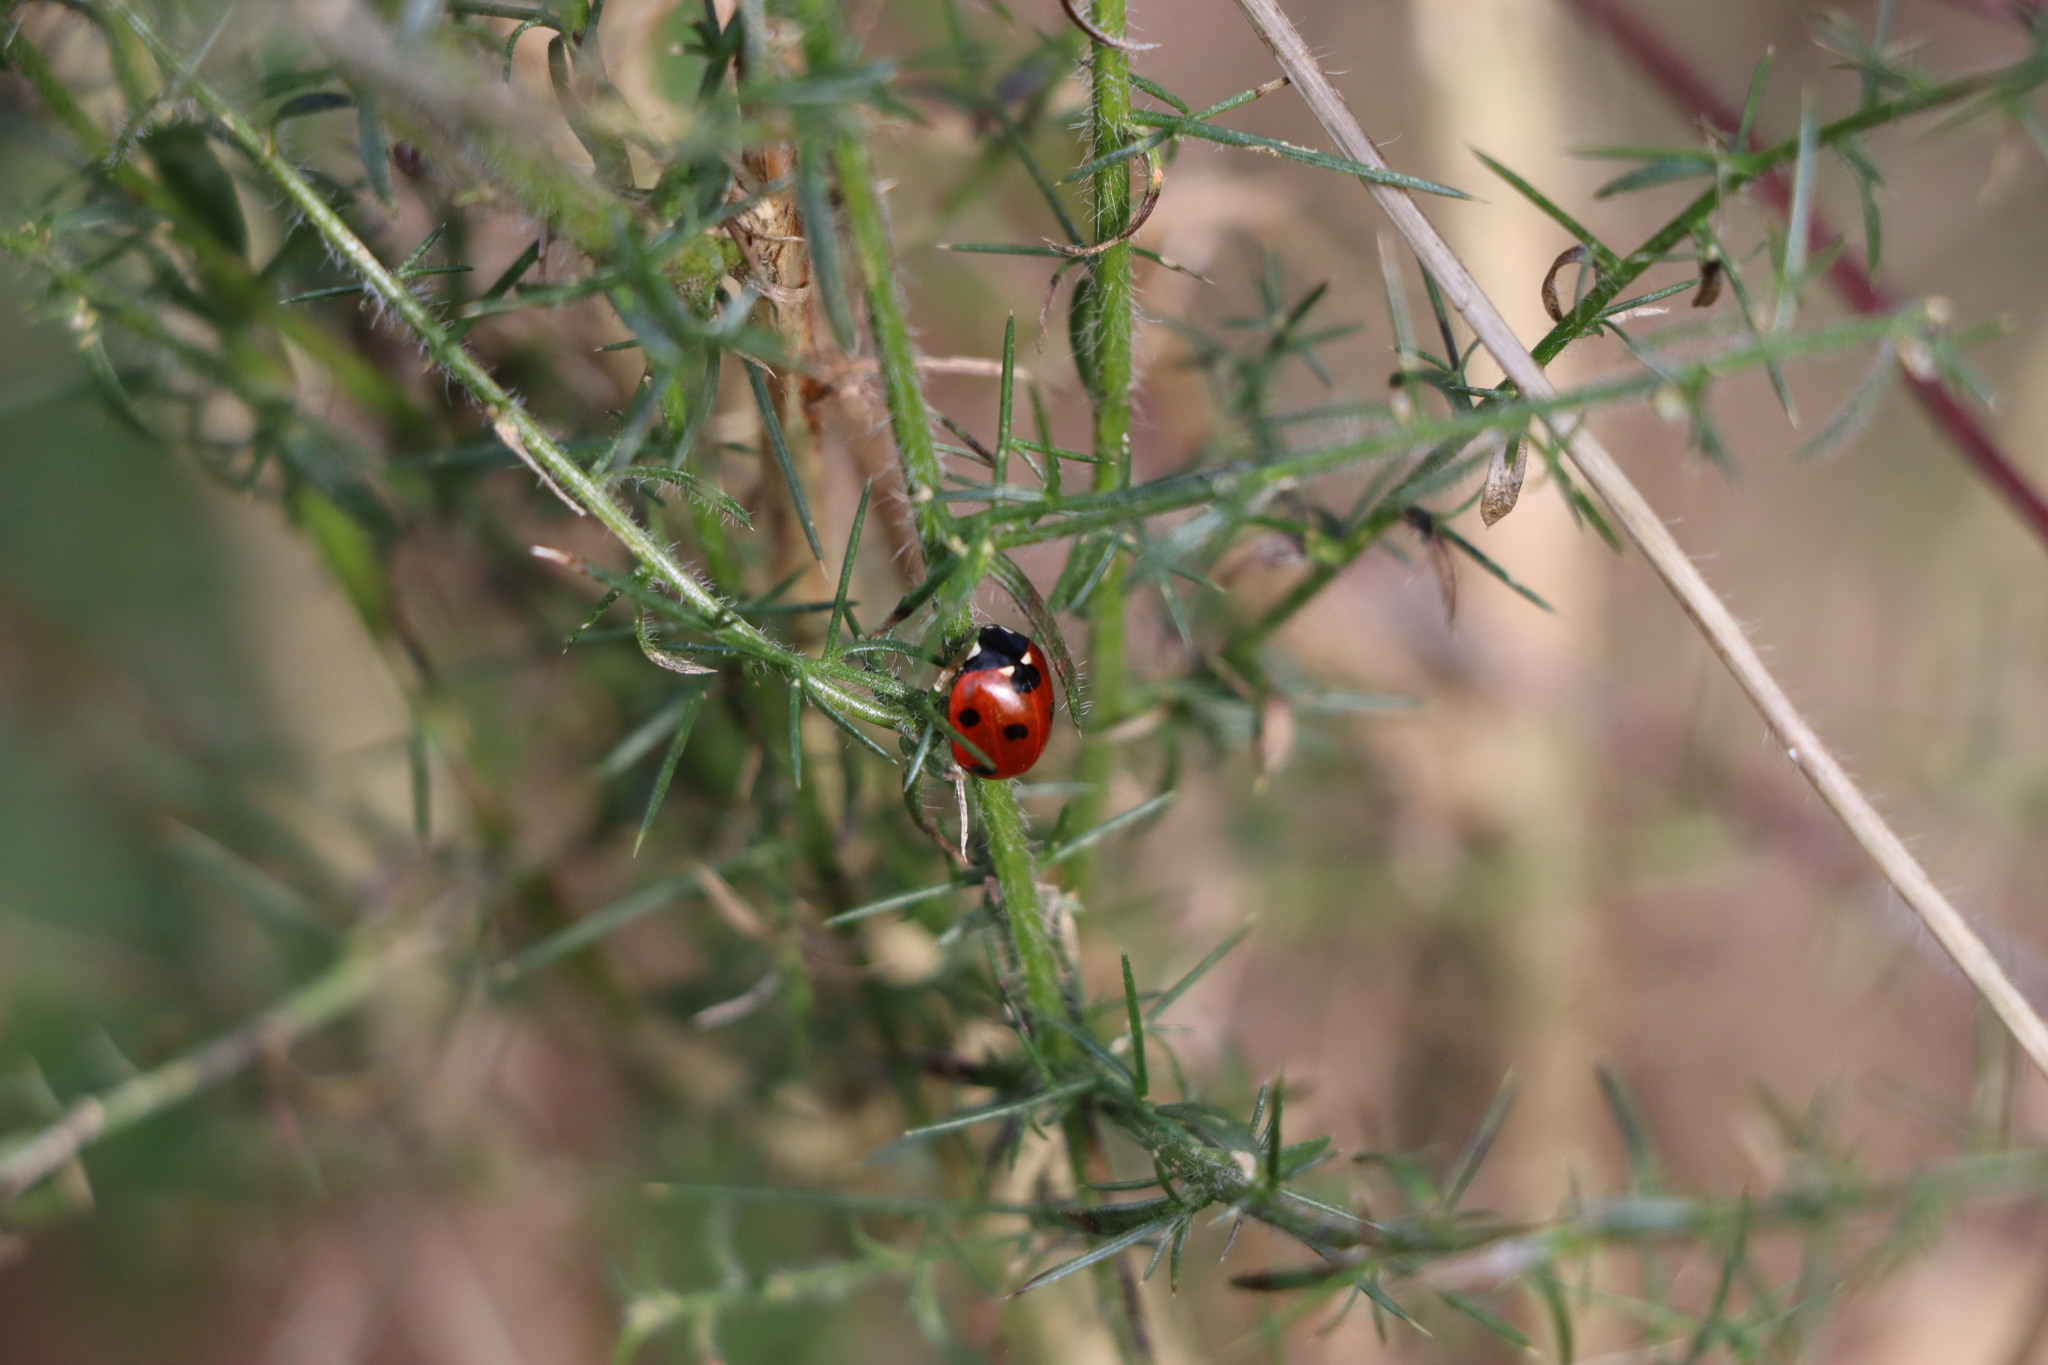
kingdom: Animalia
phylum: Arthropoda
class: Insecta
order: Coleoptera
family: Coccinellidae
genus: Coccinella
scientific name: Coccinella septempunctata
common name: Sevenspotted lady beetle
